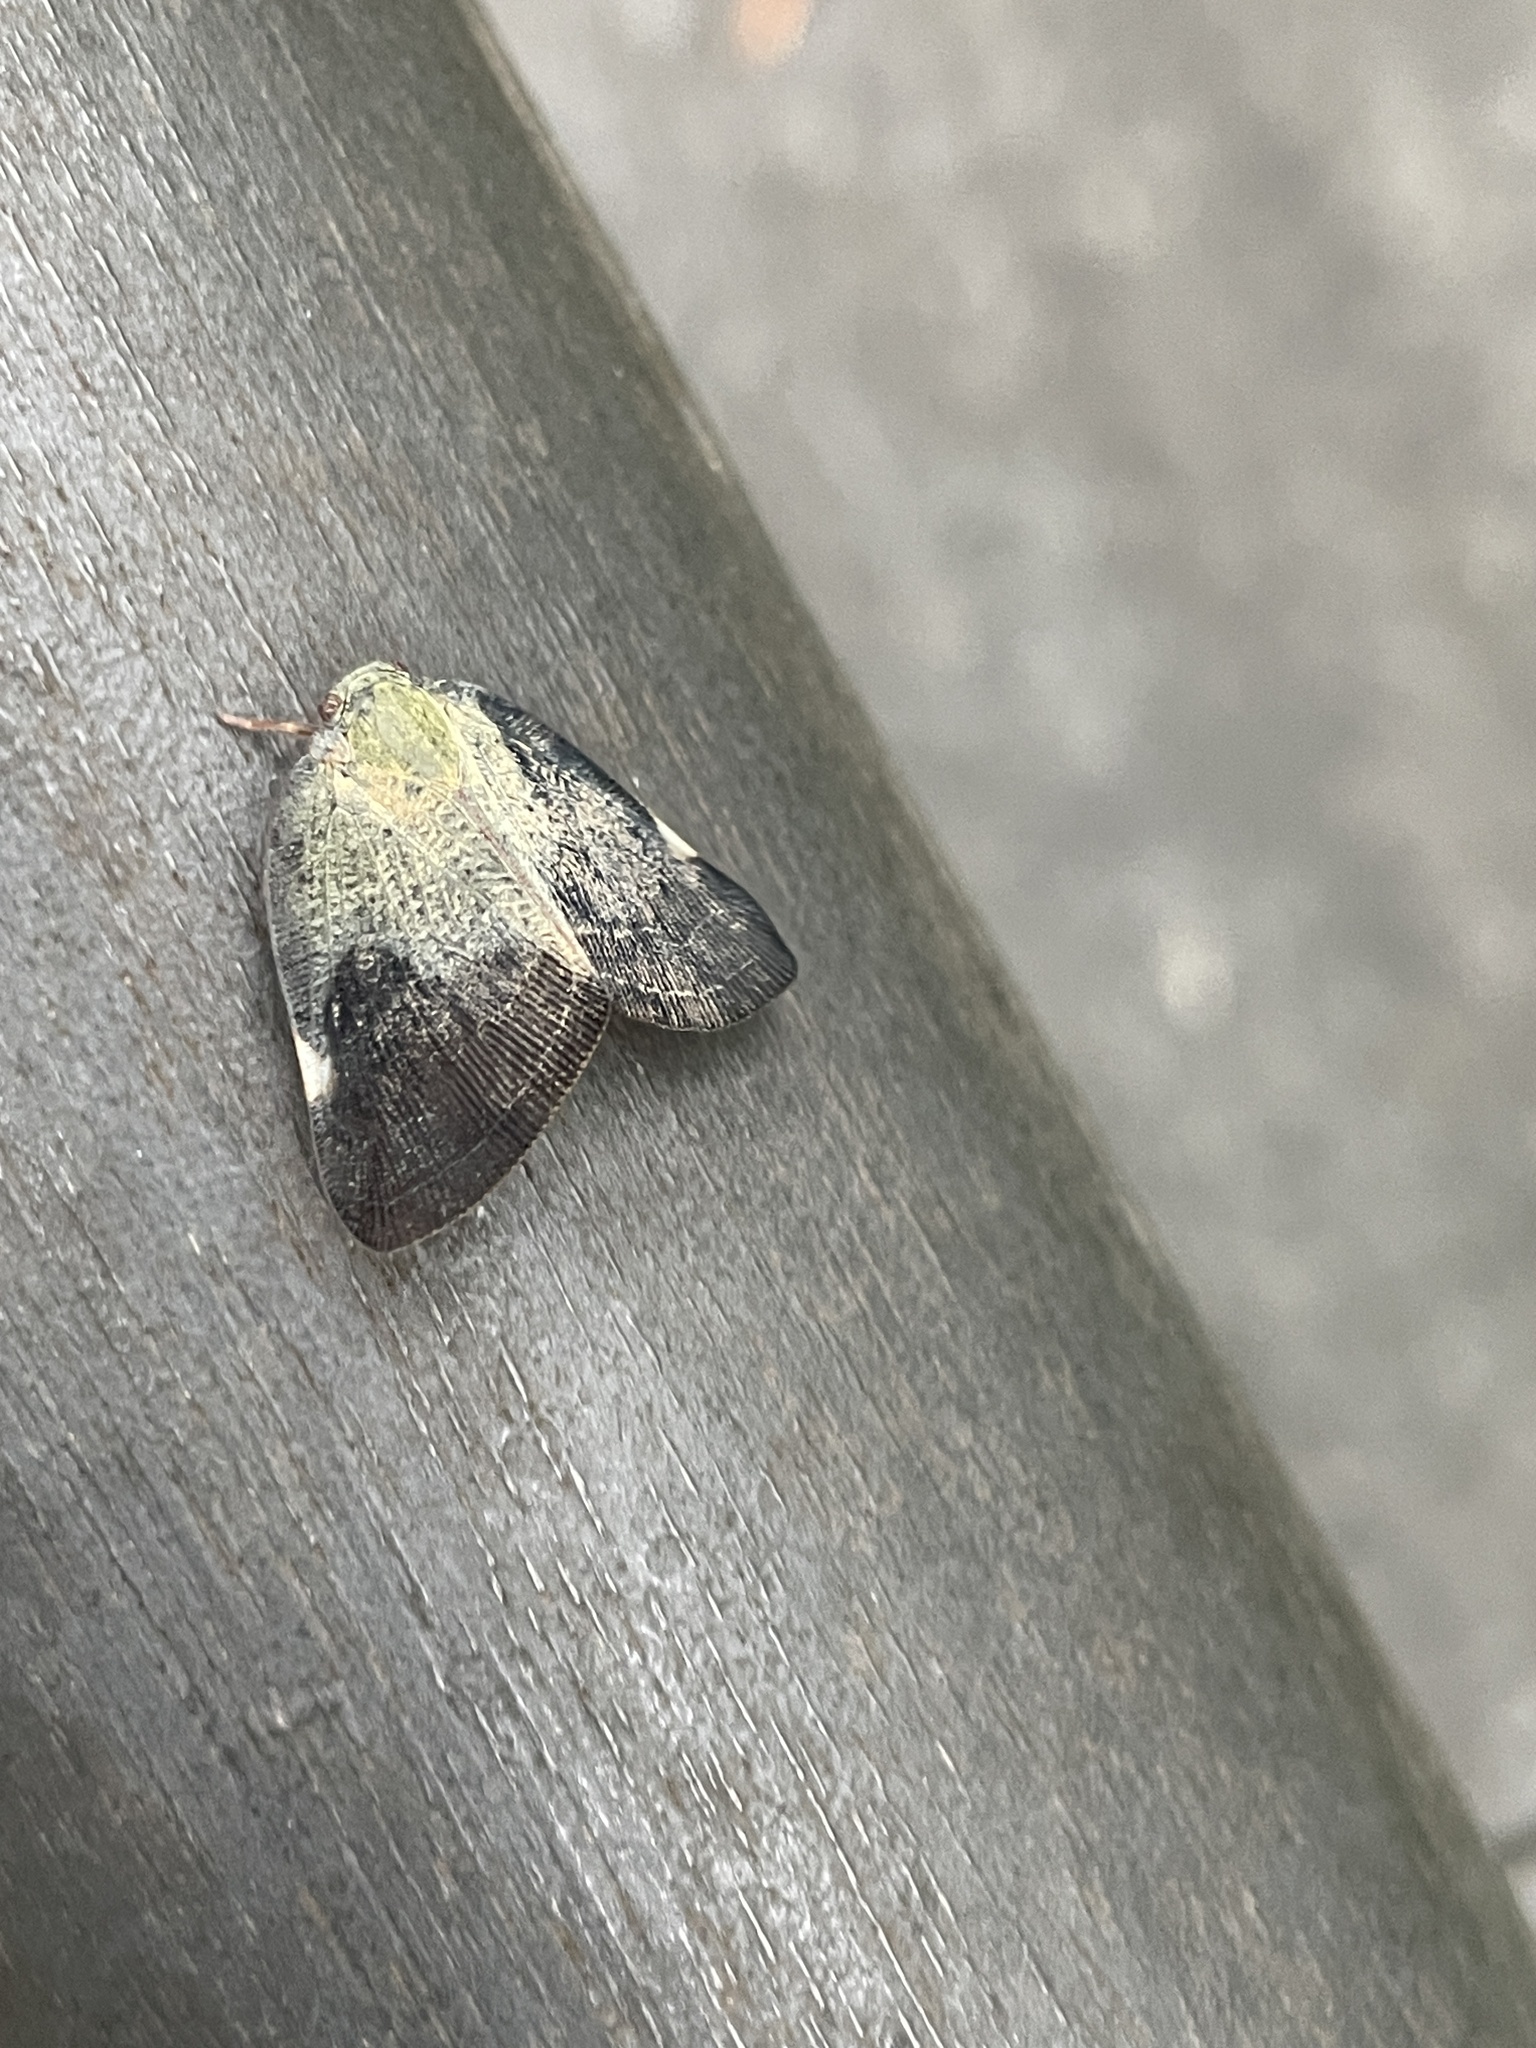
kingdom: Animalia
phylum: Arthropoda
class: Insecta
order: Hemiptera
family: Ricaniidae
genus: Ricanula
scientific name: Ricanula sublimata
